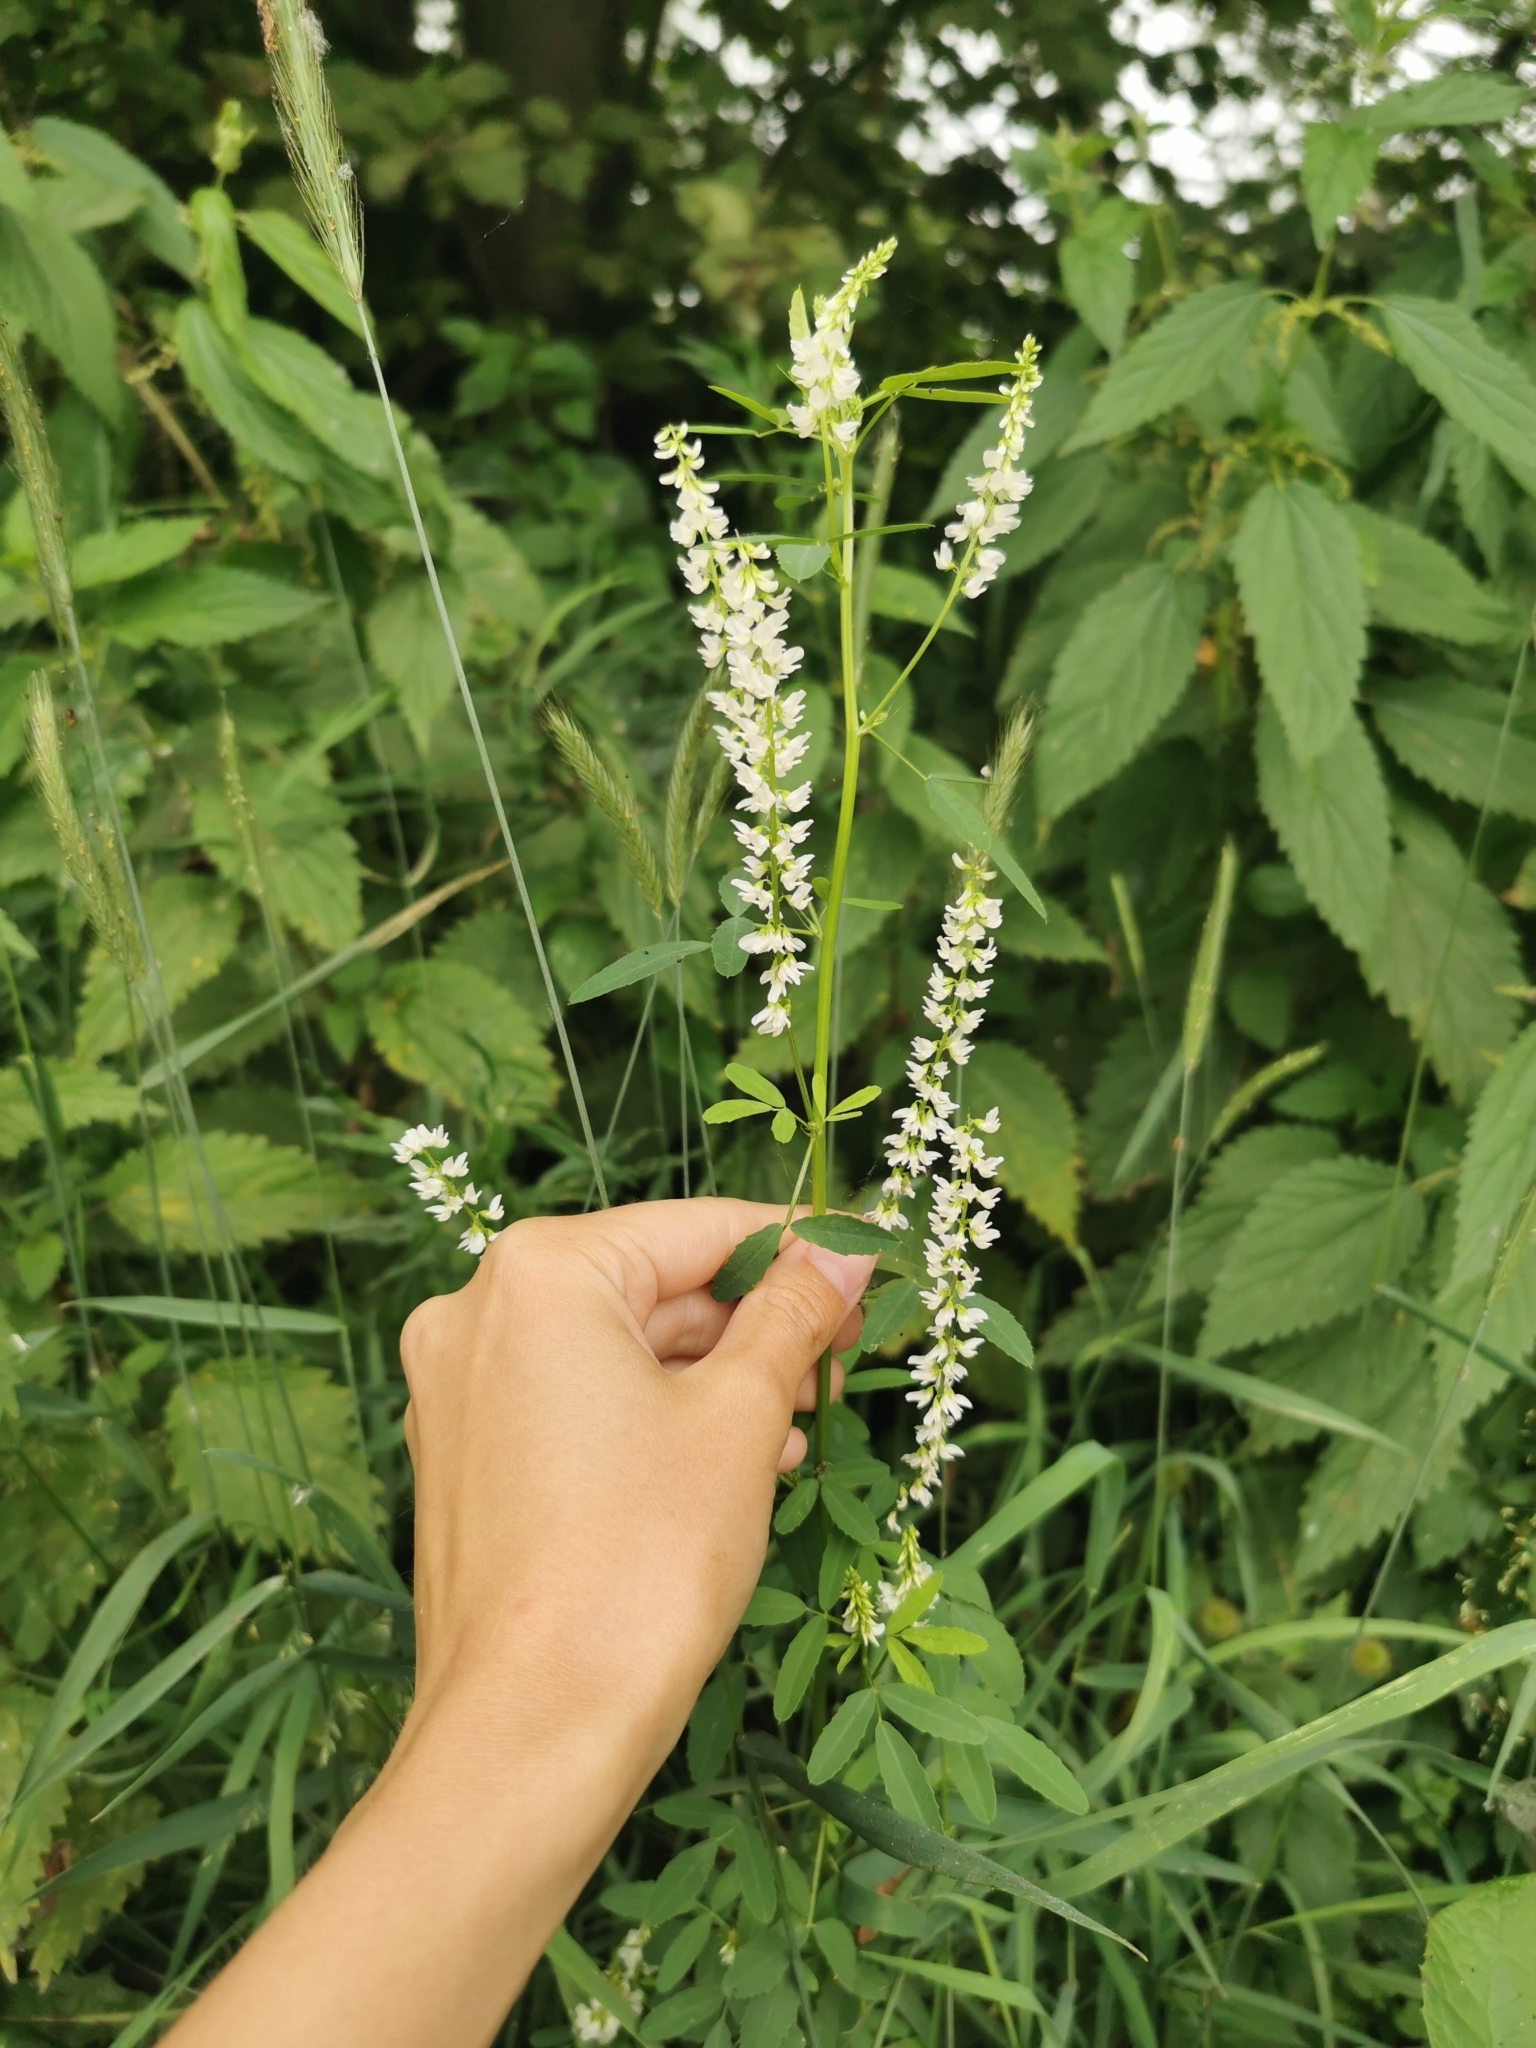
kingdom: Plantae
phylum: Tracheophyta
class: Magnoliopsida
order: Fabales
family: Fabaceae
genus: Melilotus
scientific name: Melilotus albus
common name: White melilot
